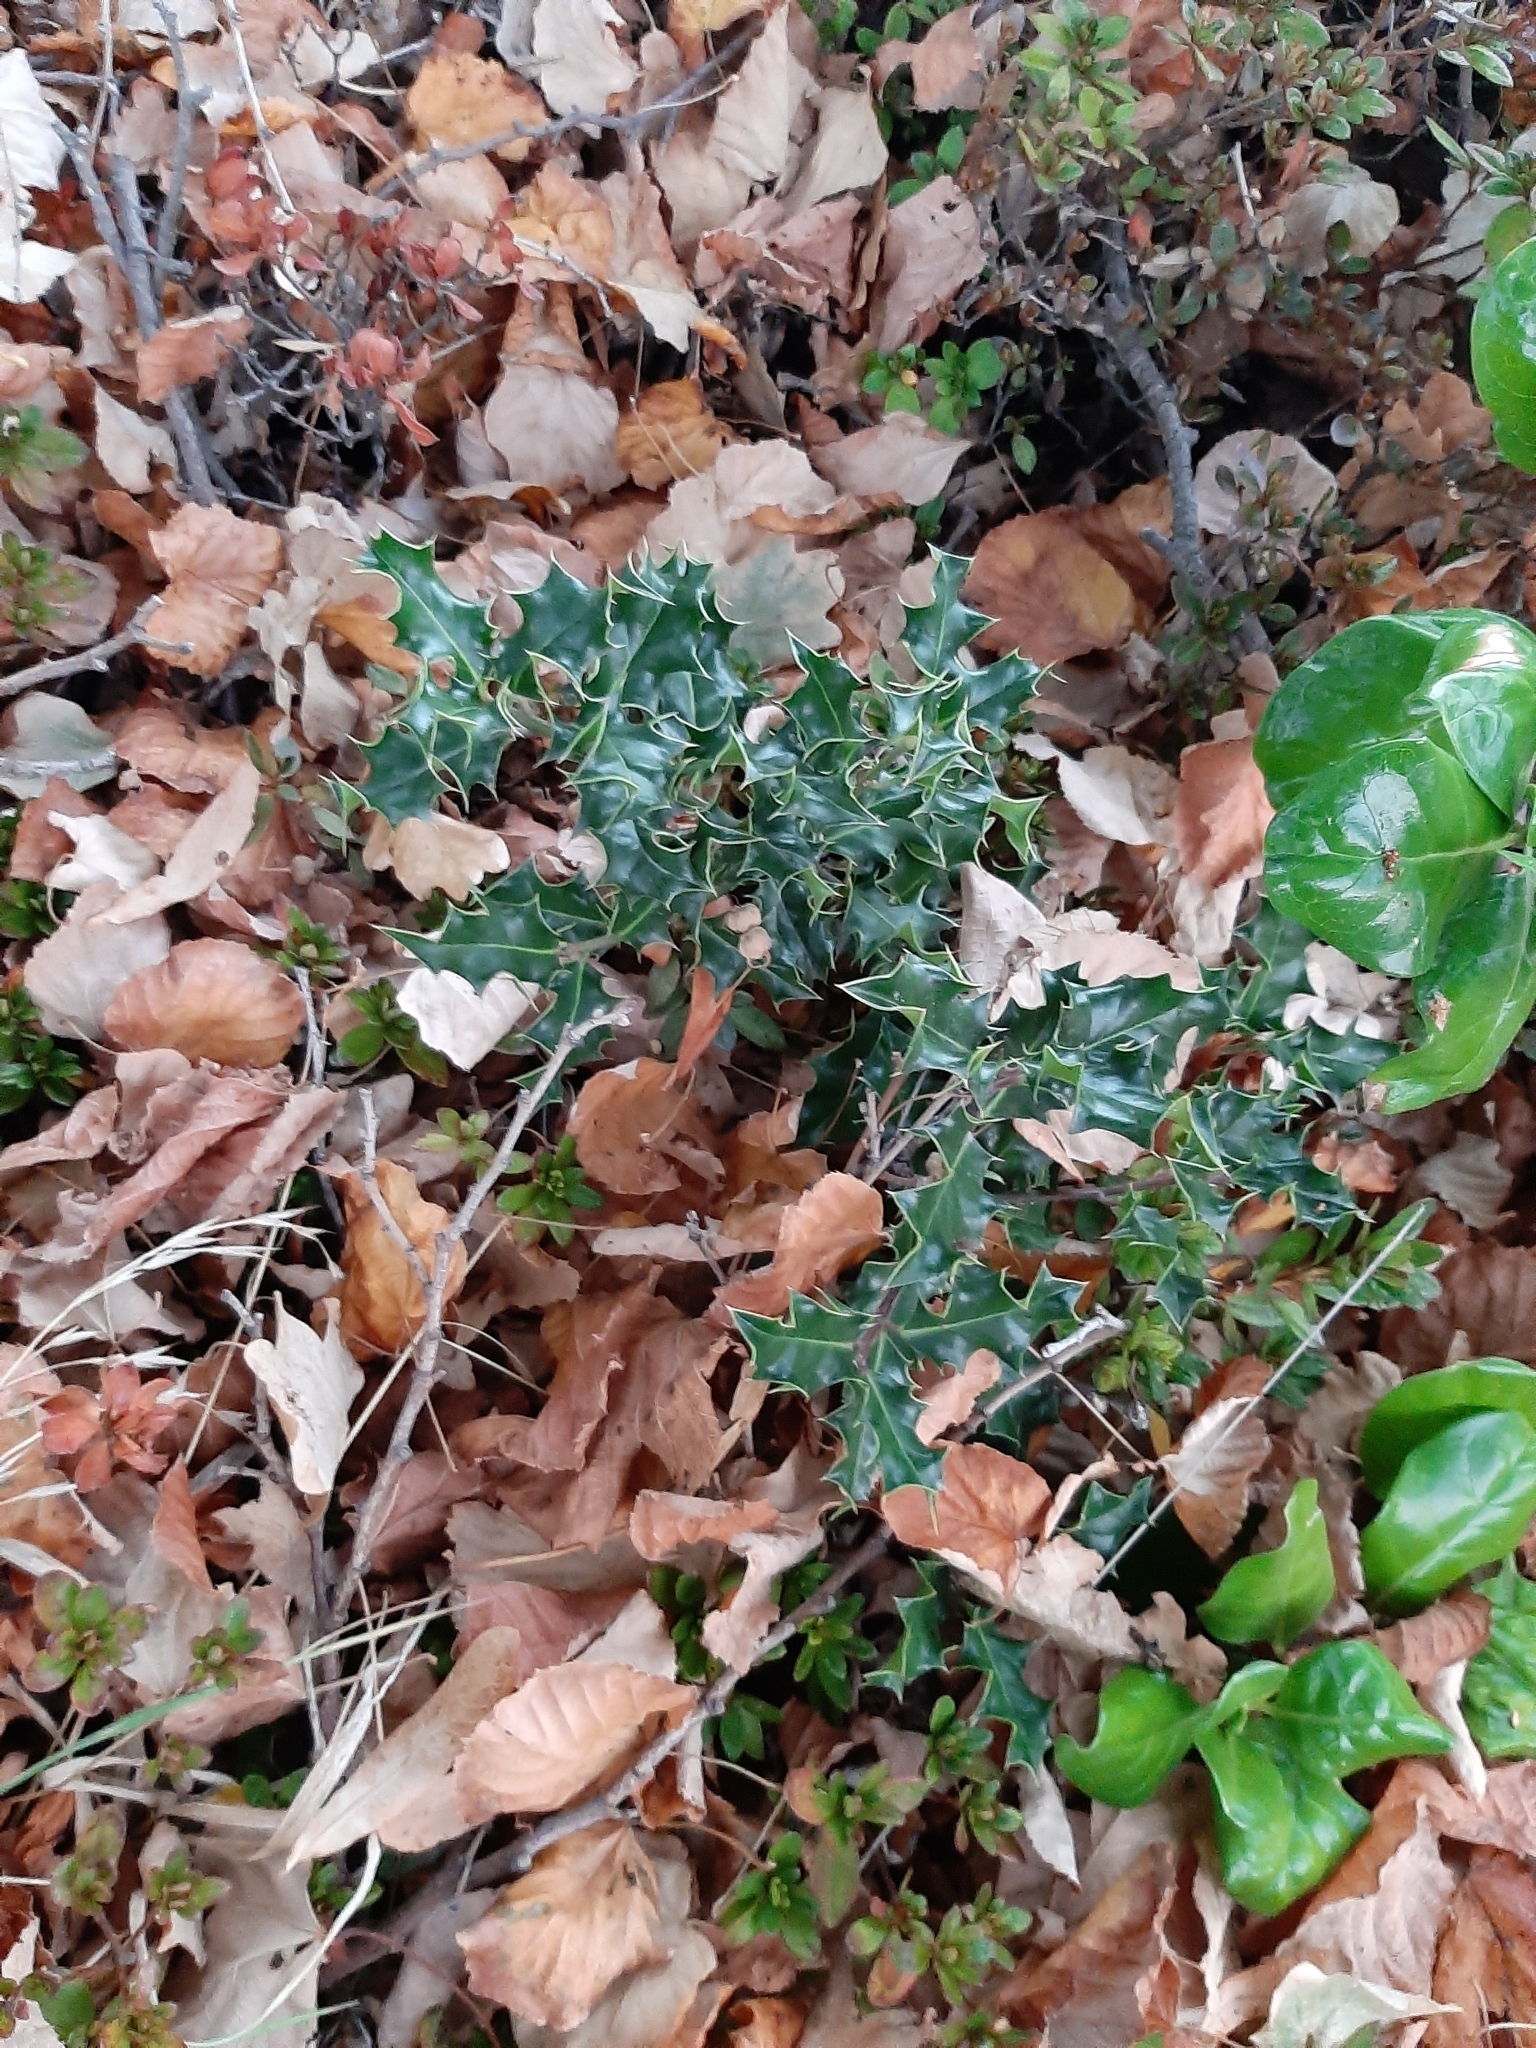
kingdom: Plantae
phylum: Tracheophyta
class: Magnoliopsida
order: Aquifoliales
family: Aquifoliaceae
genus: Ilex
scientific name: Ilex aquifolium
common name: English holly
